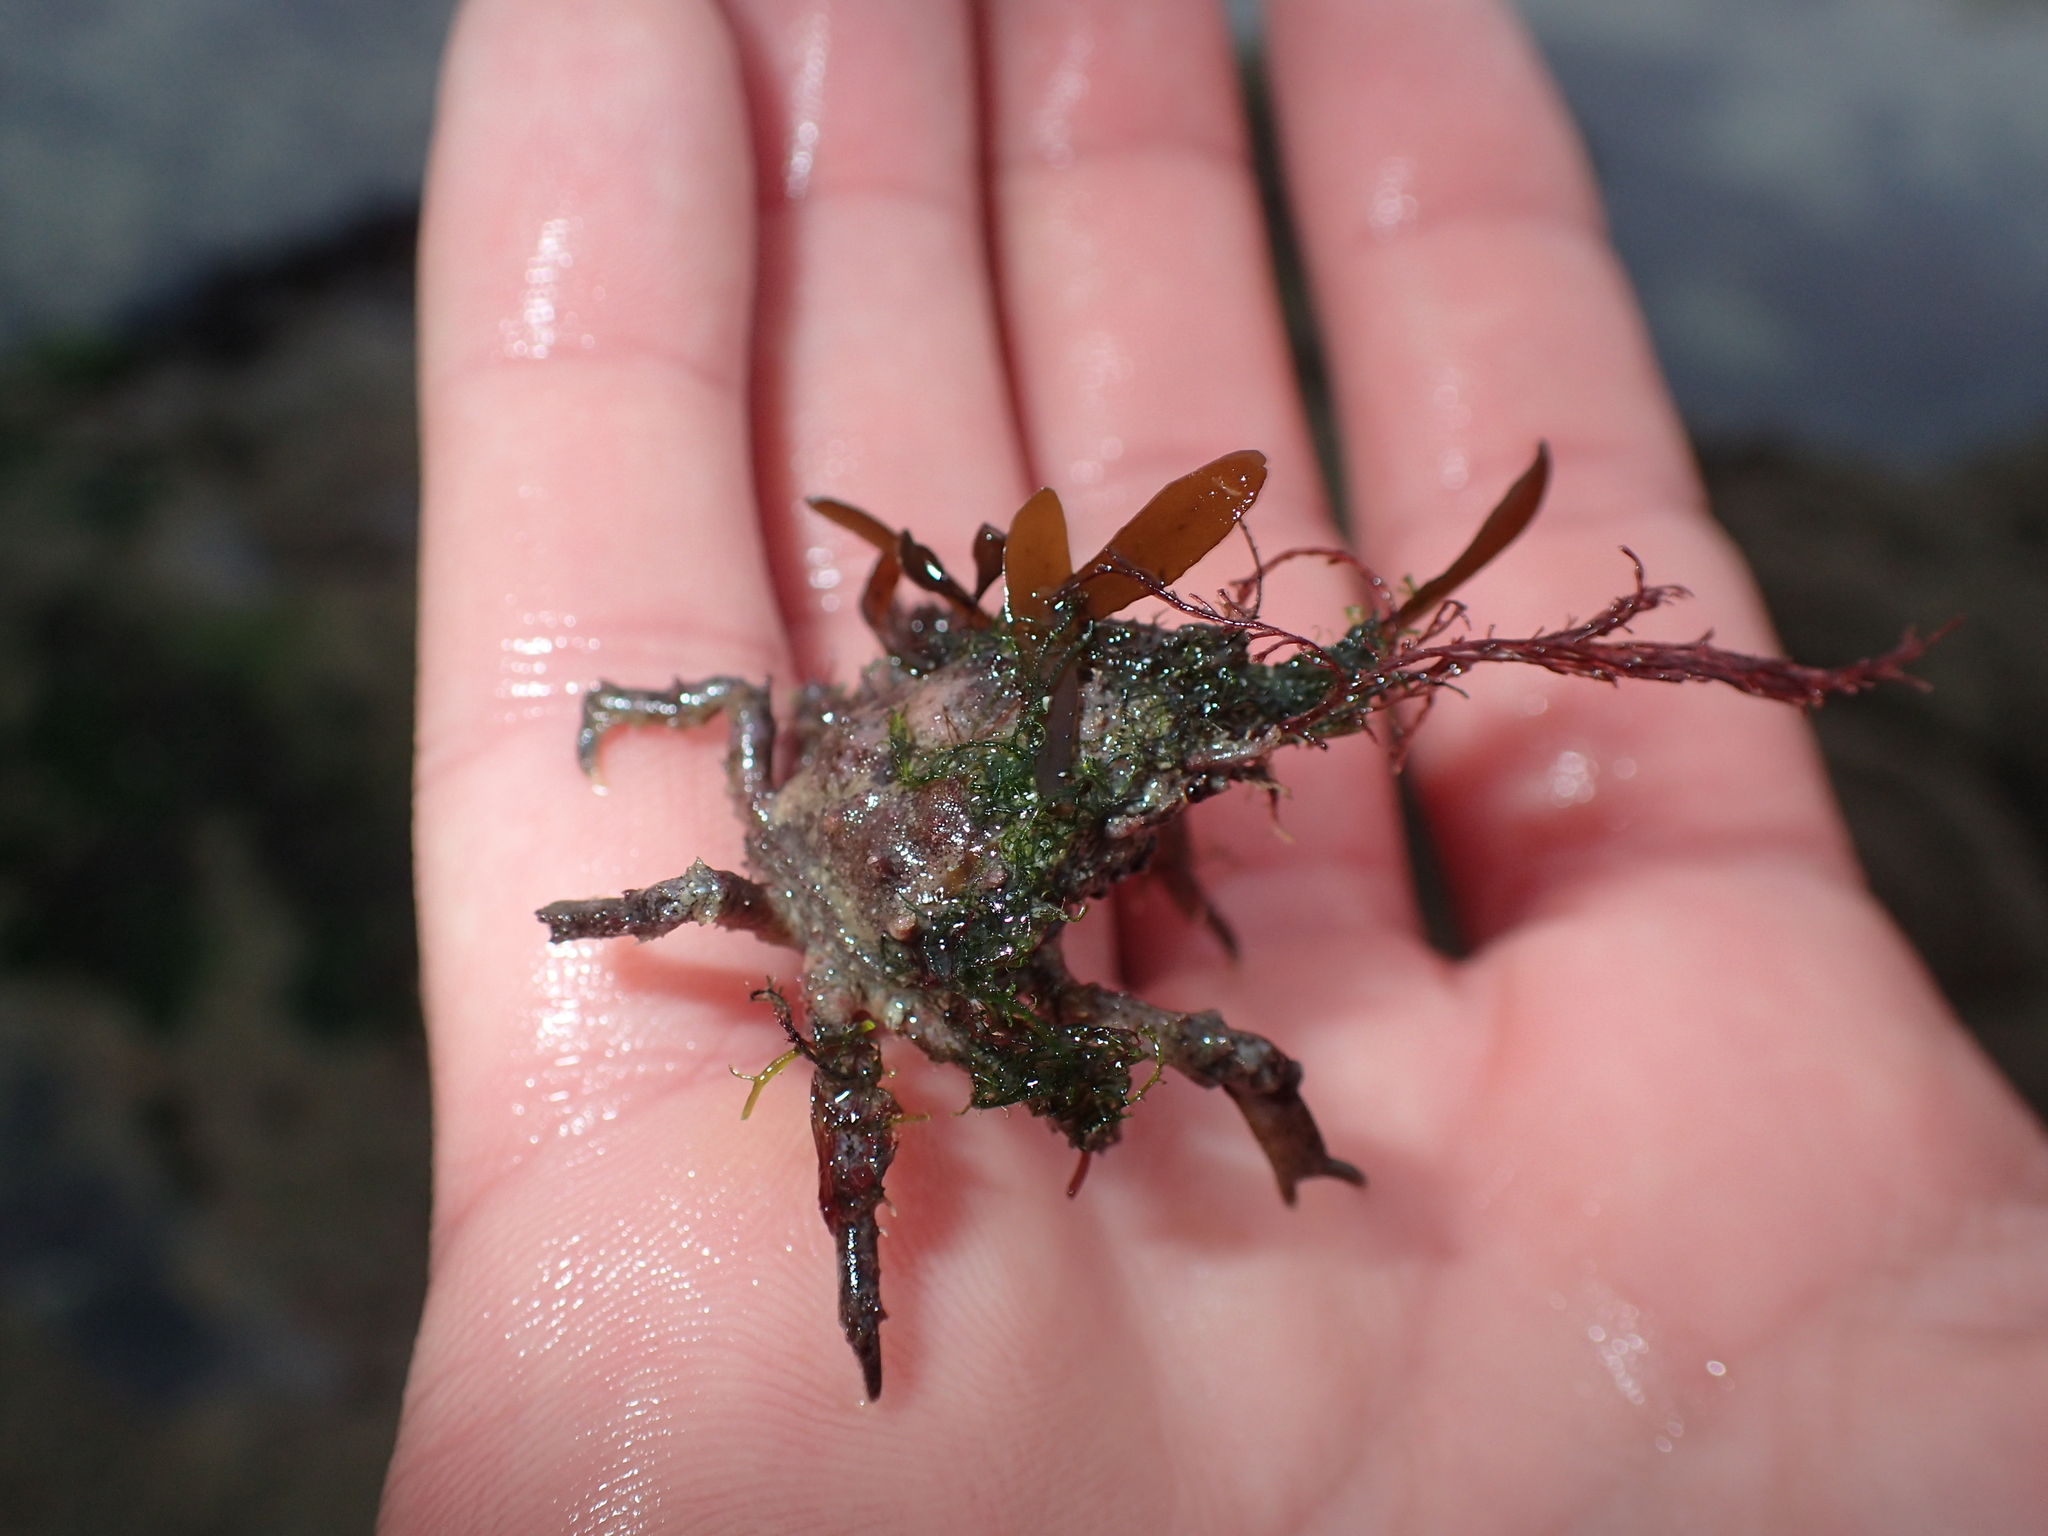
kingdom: Animalia
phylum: Arthropoda
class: Malacostraca
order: Decapoda
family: Epialtidae
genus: Pisa
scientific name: Pisa tetraodon
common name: Four-horned spider crab
